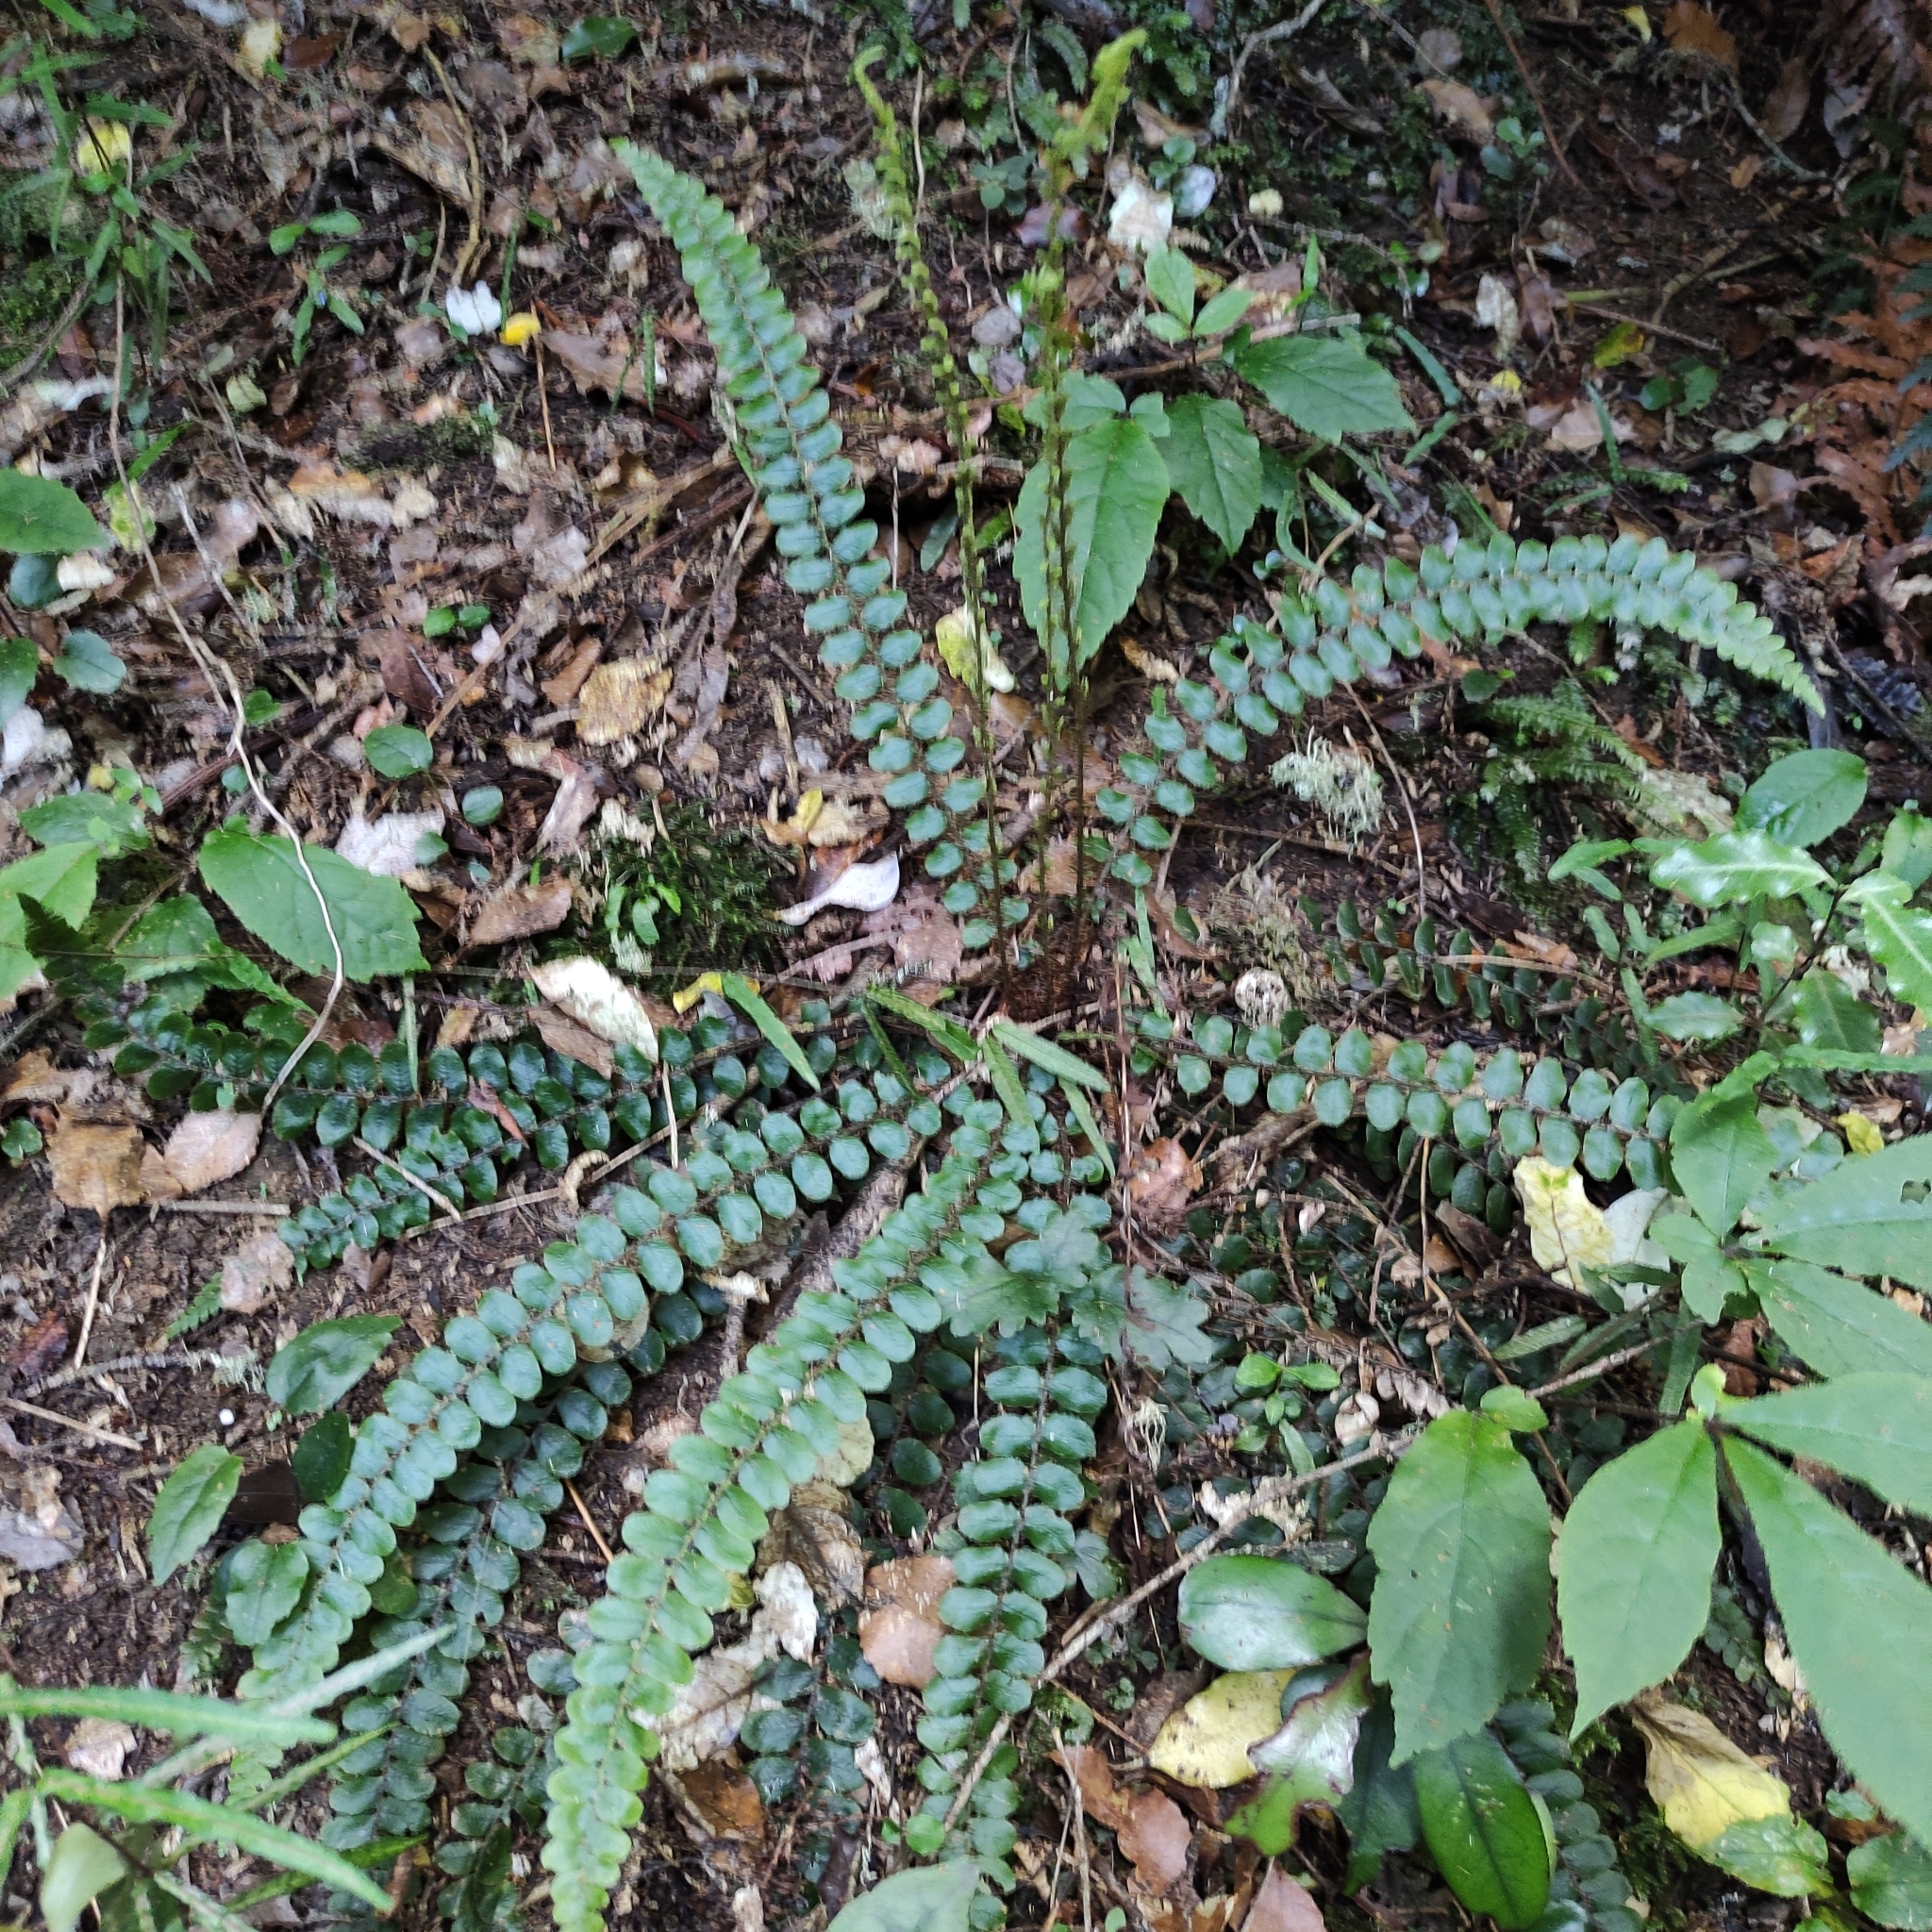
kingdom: Plantae
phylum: Tracheophyta
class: Polypodiopsida
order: Polypodiales
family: Blechnaceae
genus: Cranfillia
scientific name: Cranfillia fluviatilis
